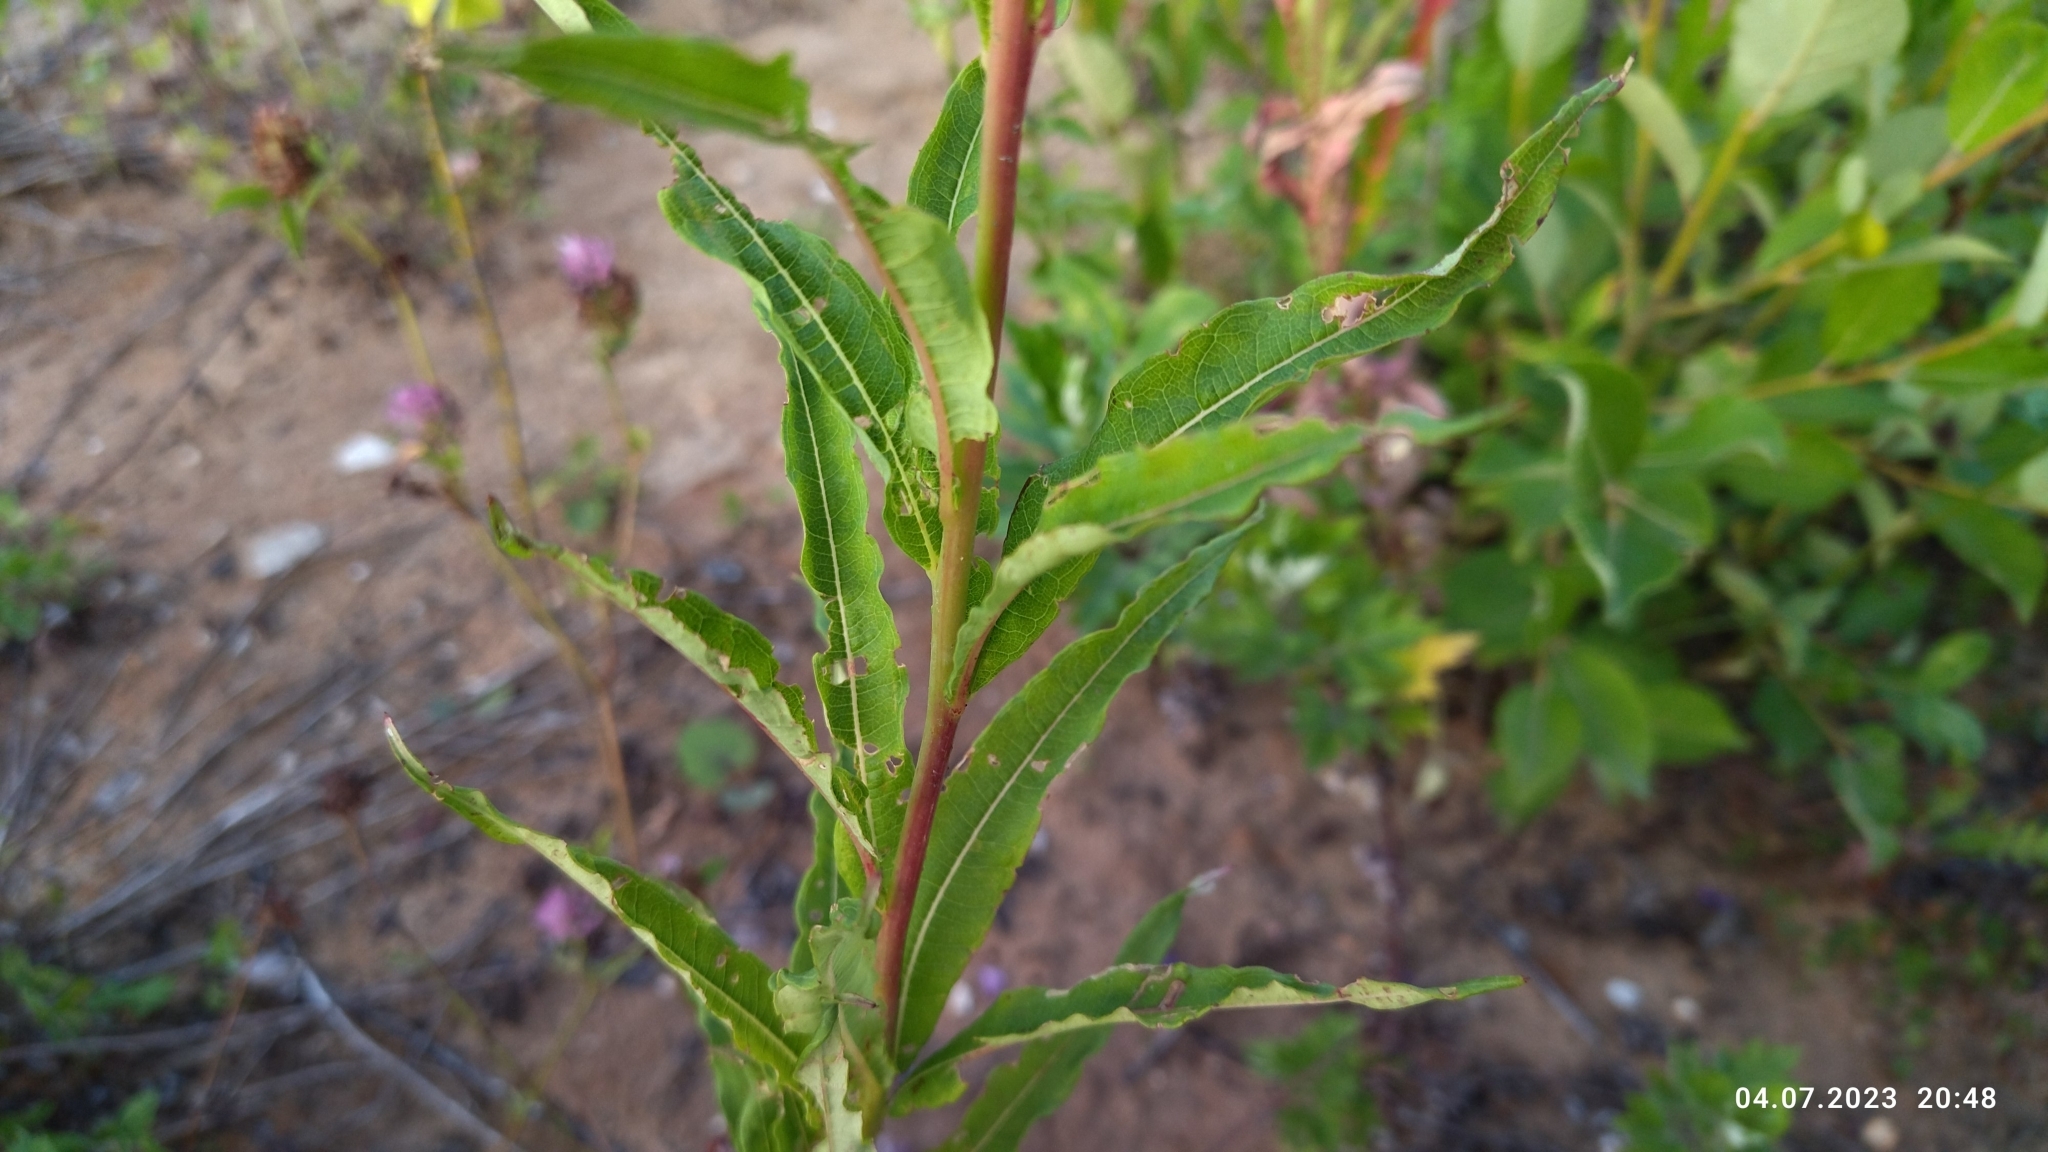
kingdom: Plantae
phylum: Tracheophyta
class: Magnoliopsida
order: Myrtales
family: Onagraceae
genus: Chamaenerion
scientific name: Chamaenerion angustifolium
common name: Fireweed
